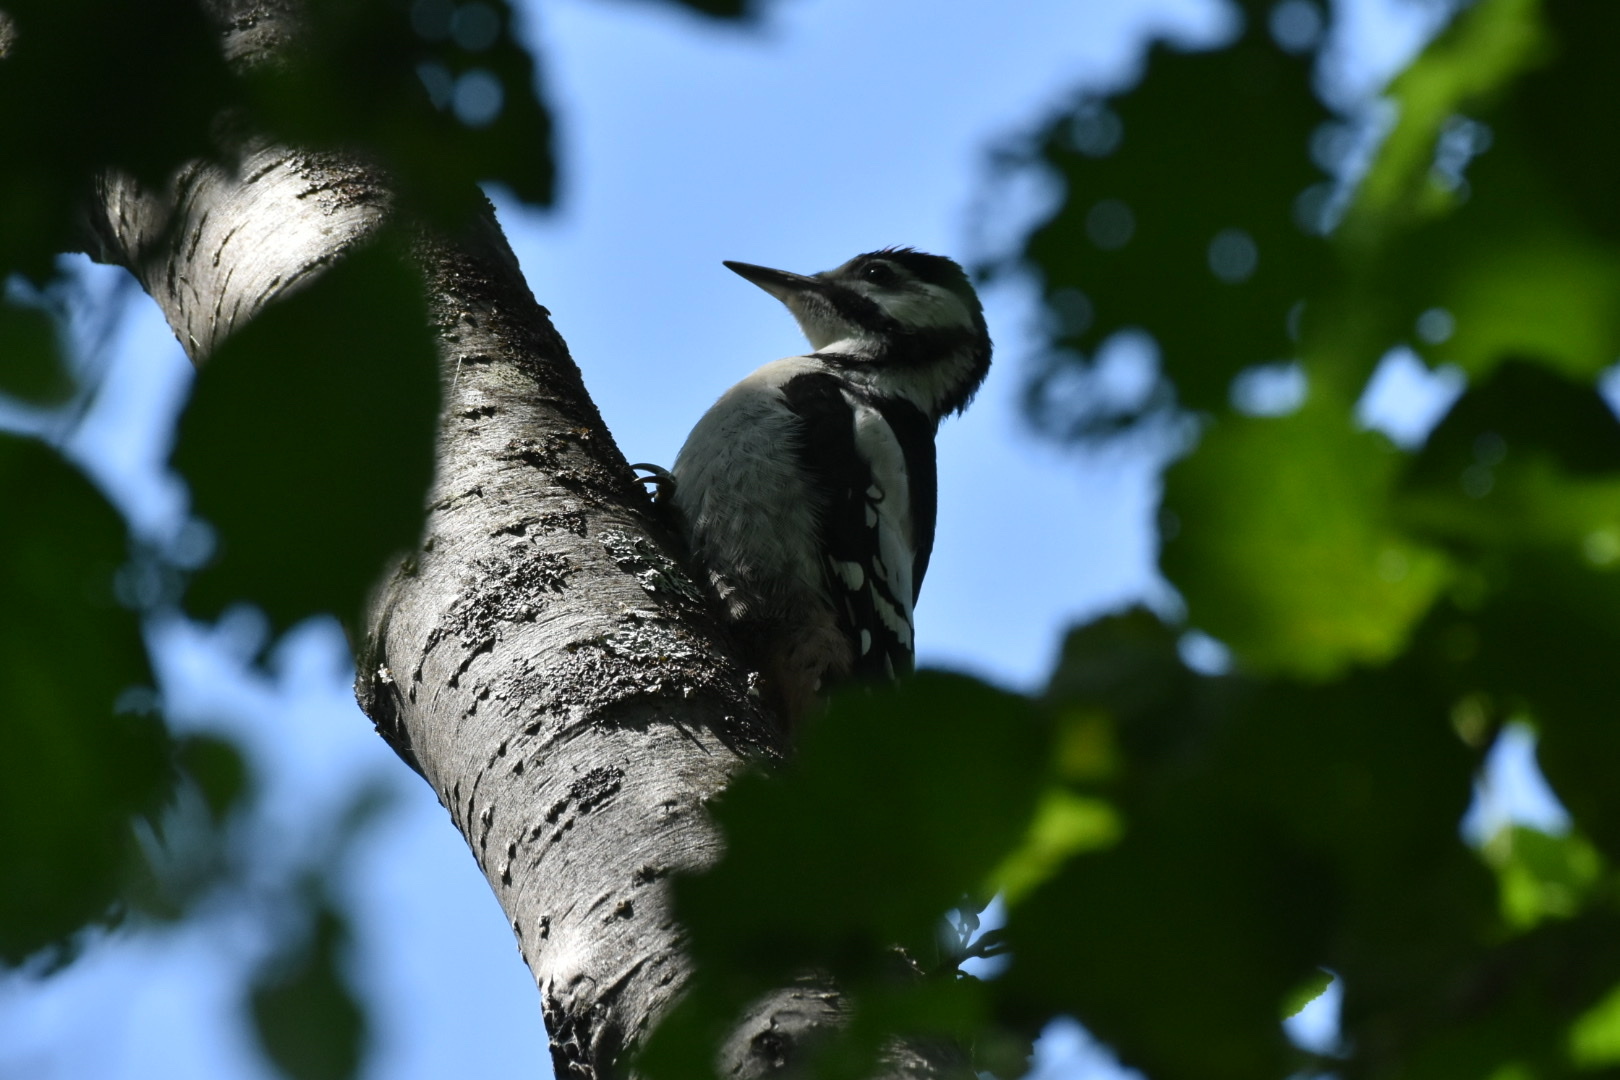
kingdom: Animalia
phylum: Chordata
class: Aves
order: Piciformes
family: Picidae
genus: Dendrocopos
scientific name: Dendrocopos major
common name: Great spotted woodpecker
